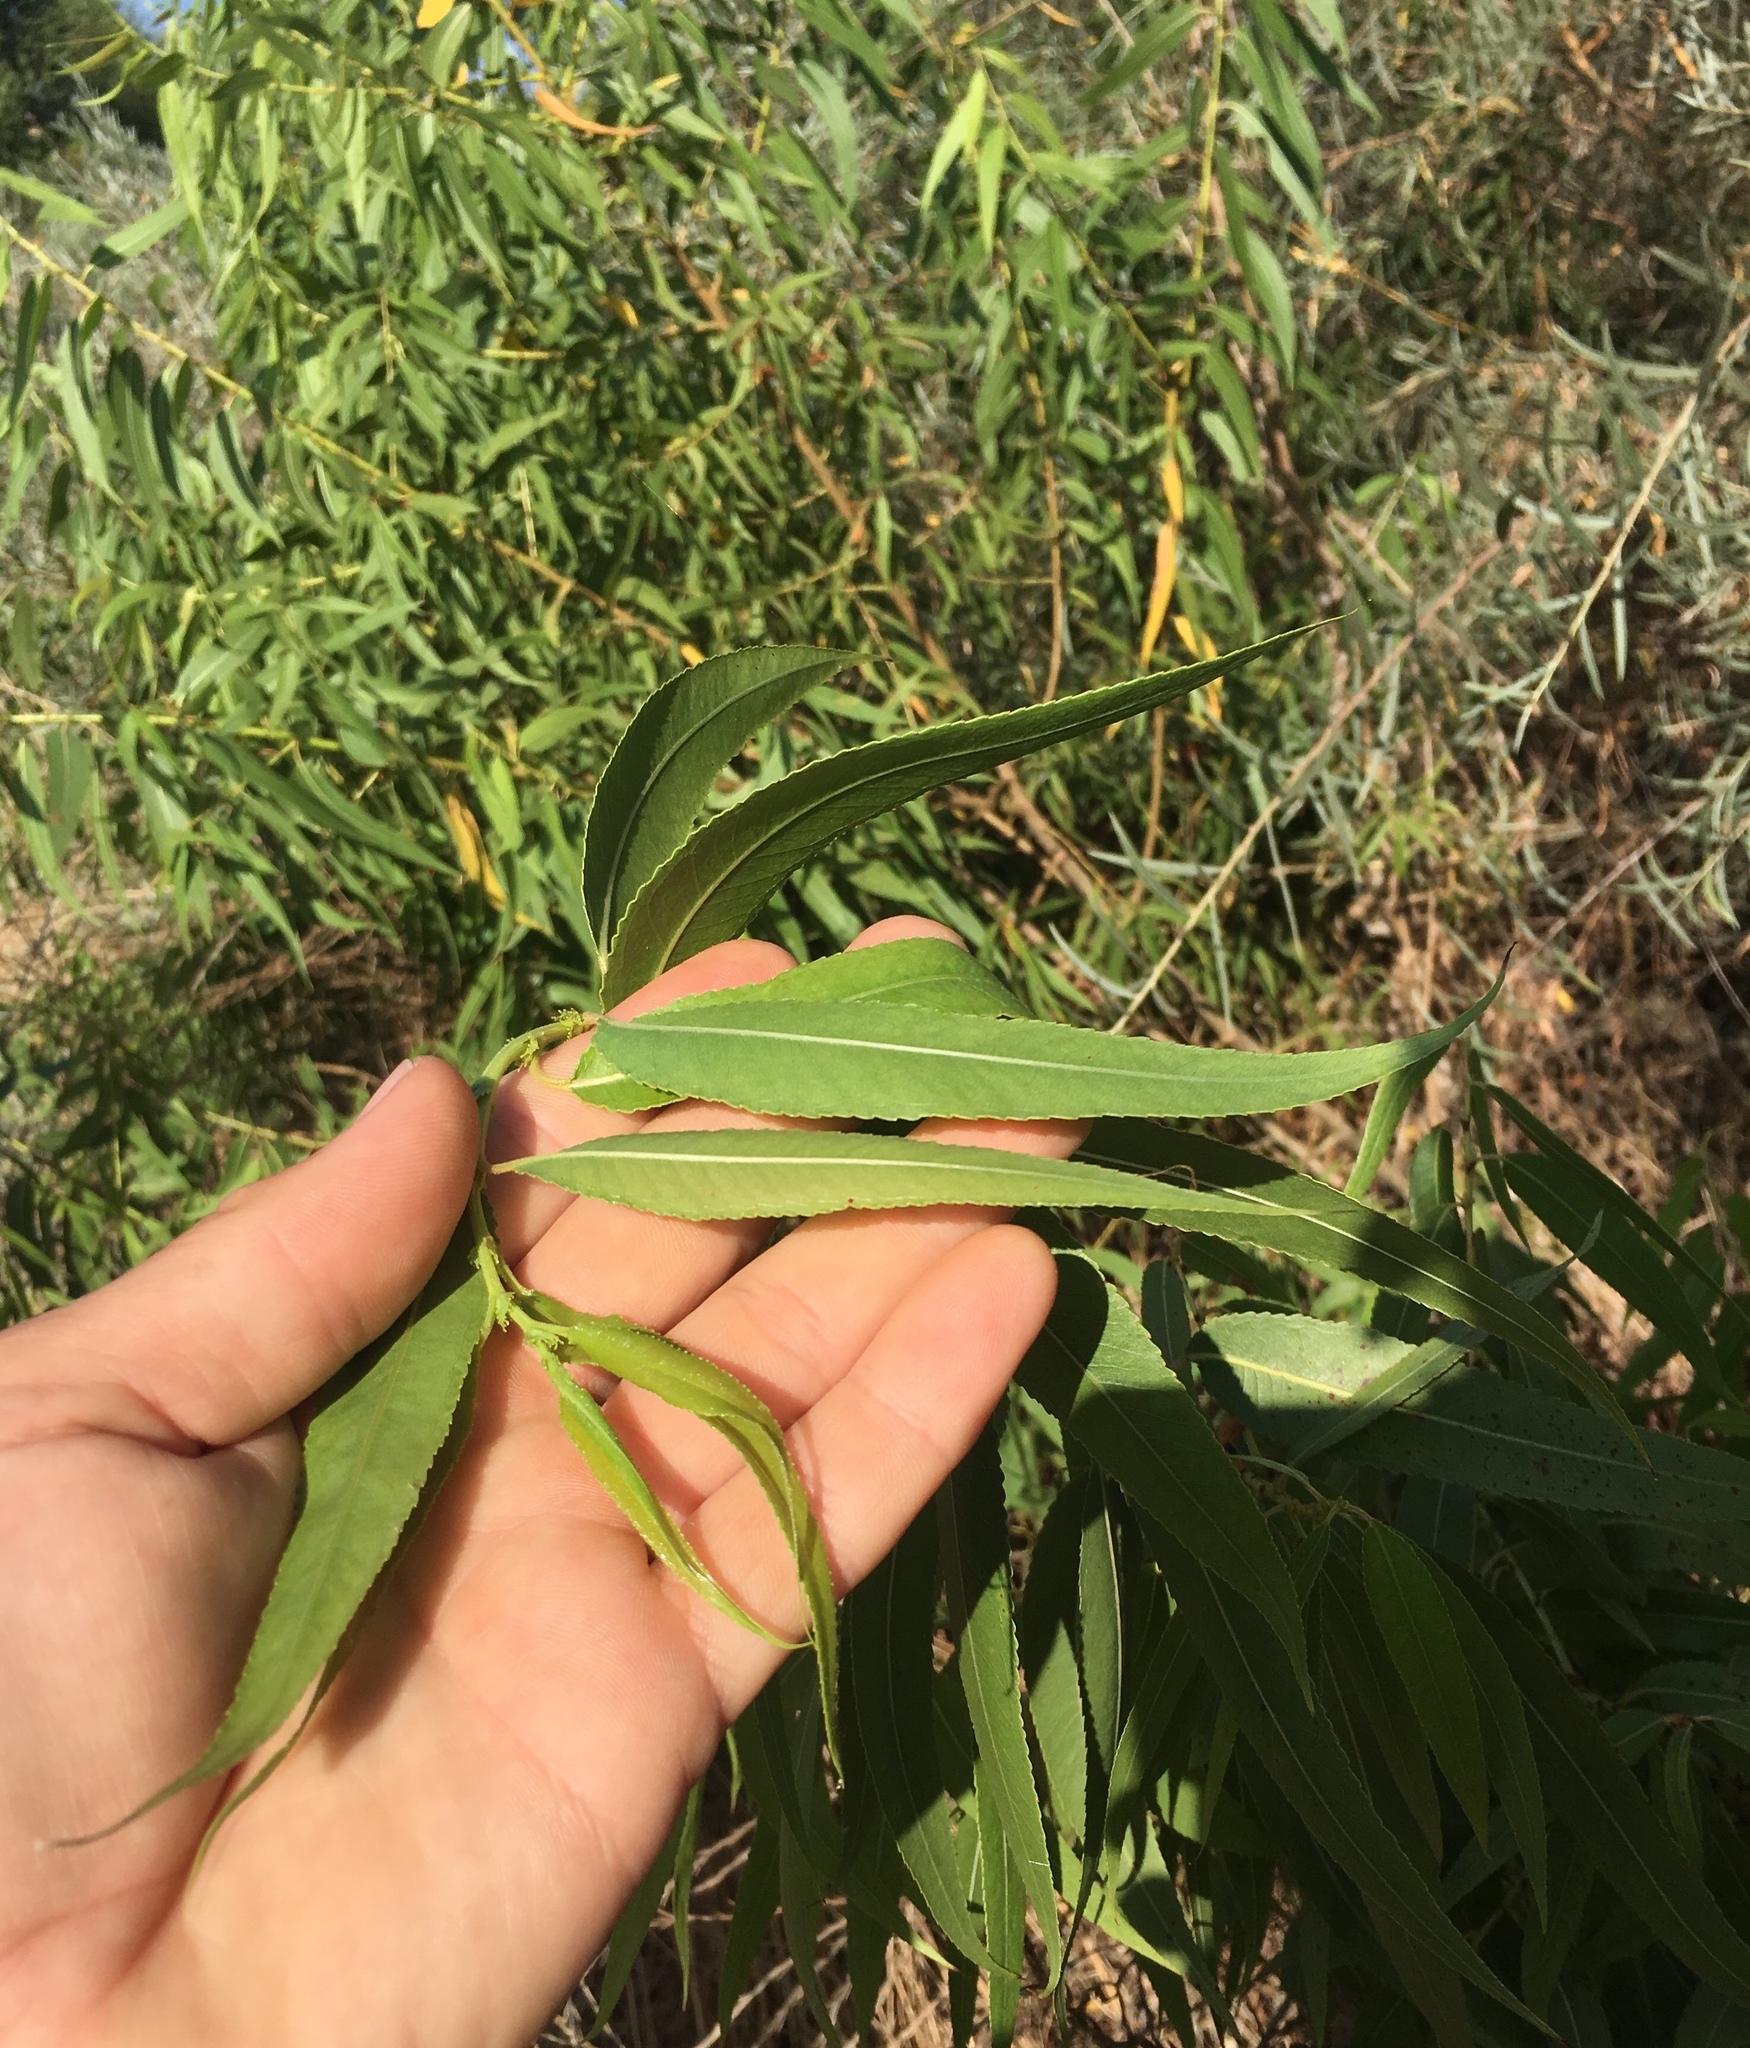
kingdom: Plantae
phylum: Tracheophyta
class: Magnoliopsida
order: Malpighiales
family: Salicaceae
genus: Salix
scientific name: Salix gooddingii
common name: Goodding's willow
